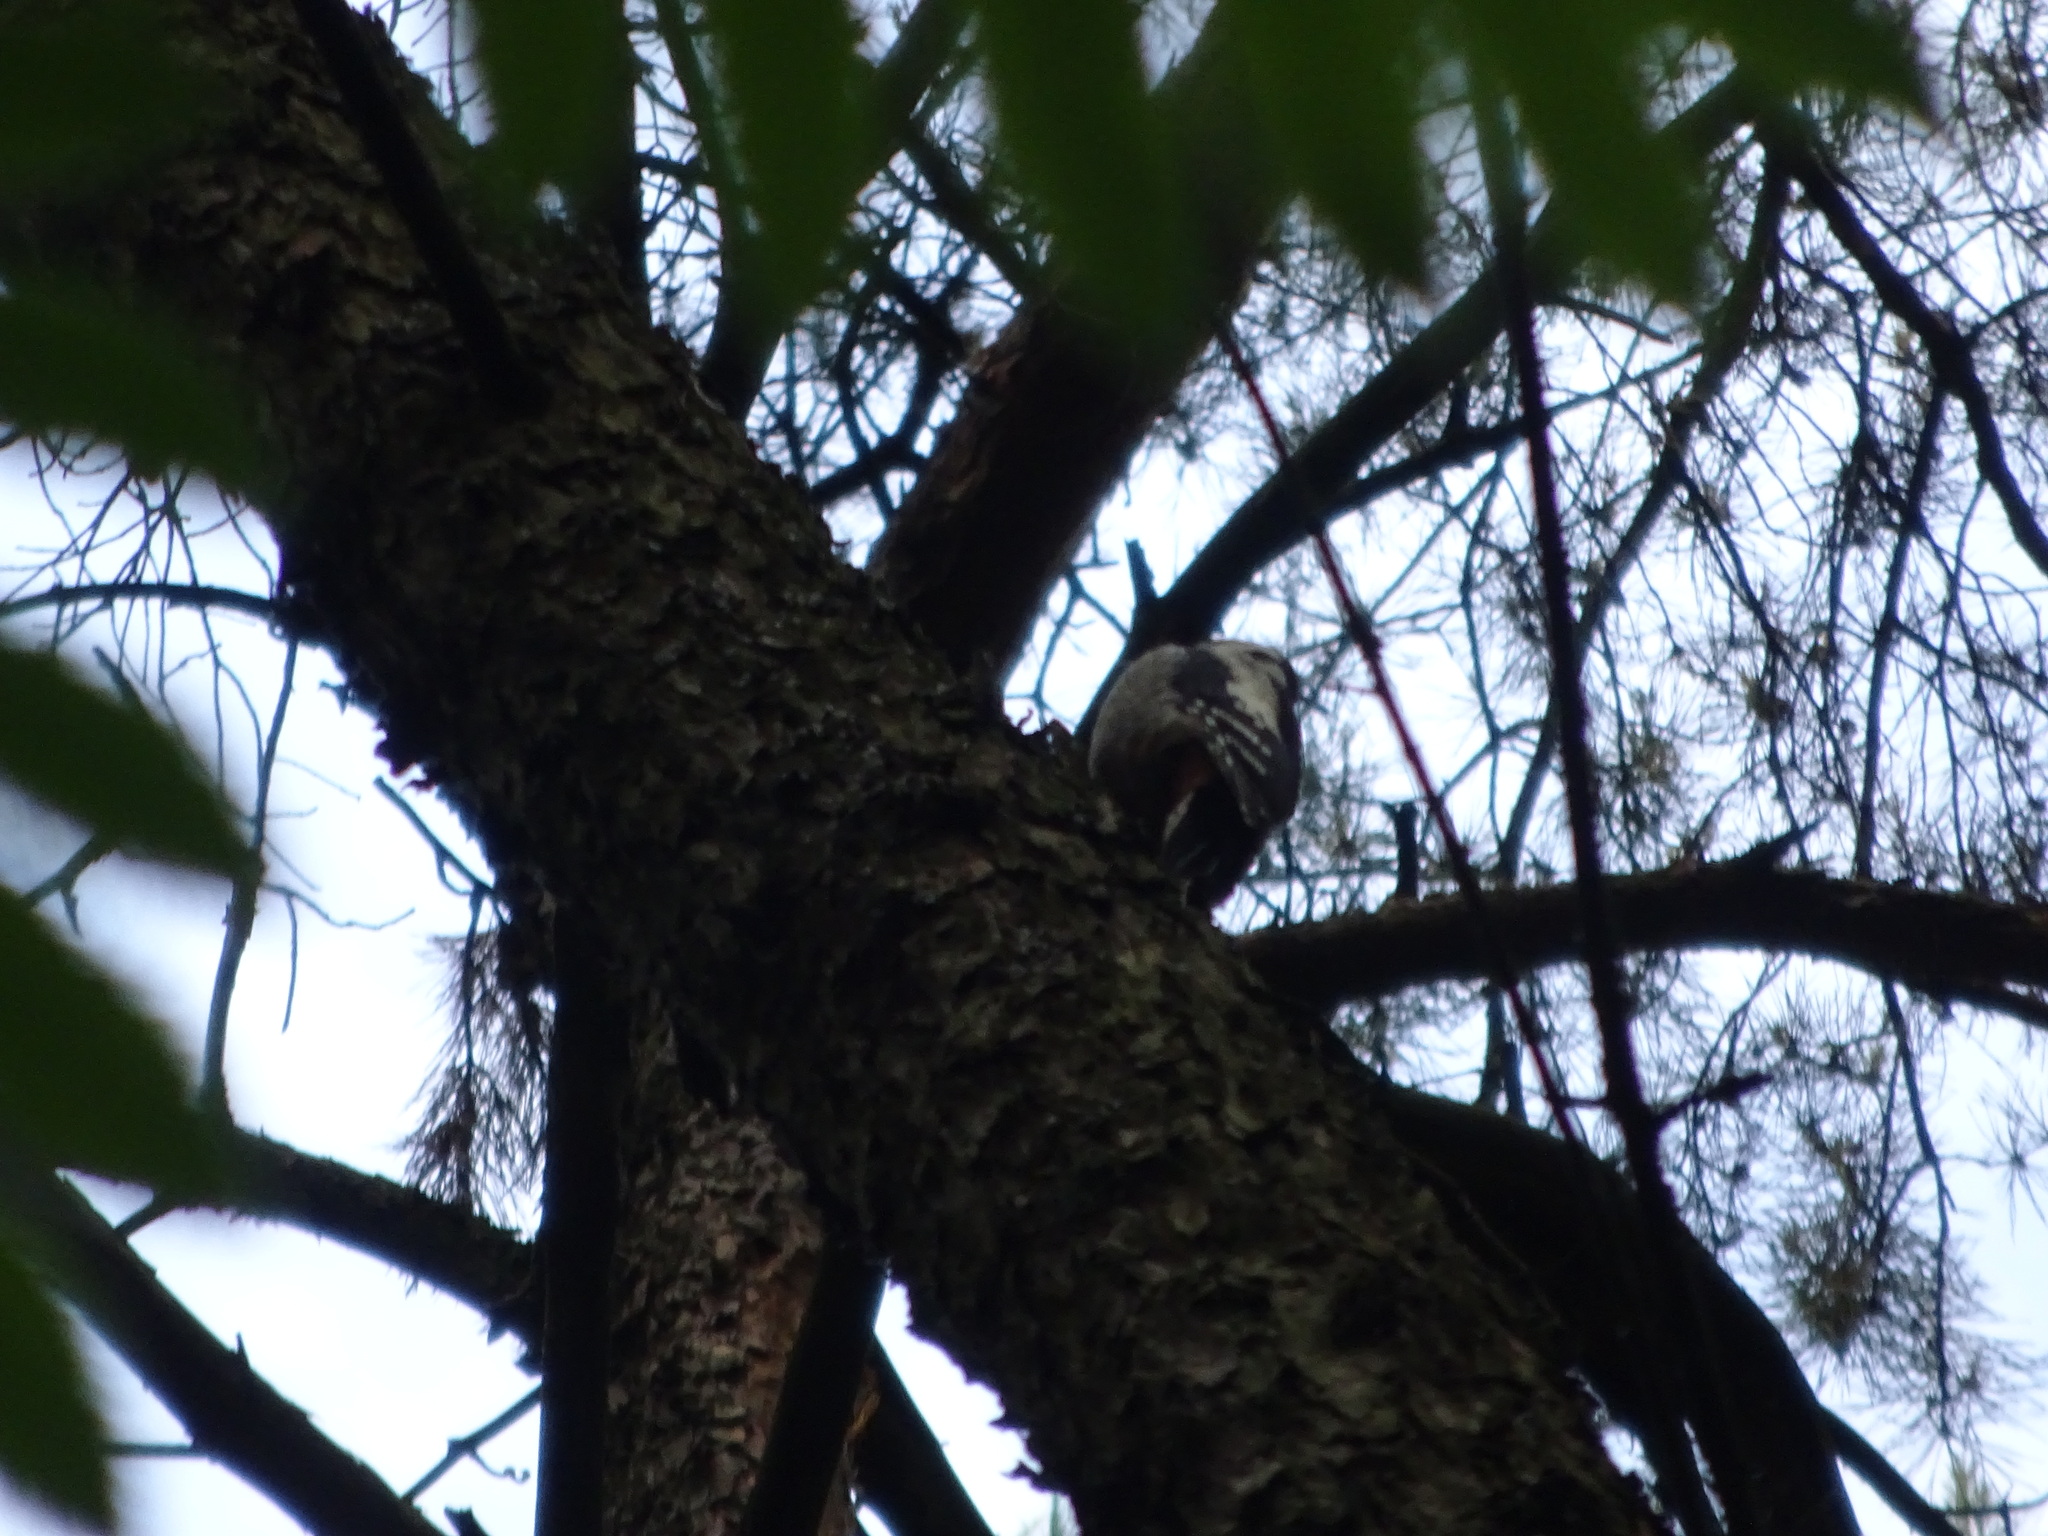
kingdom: Animalia
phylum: Chordata
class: Aves
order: Piciformes
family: Picidae
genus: Dendrocopos
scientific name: Dendrocopos major
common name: Great spotted woodpecker
